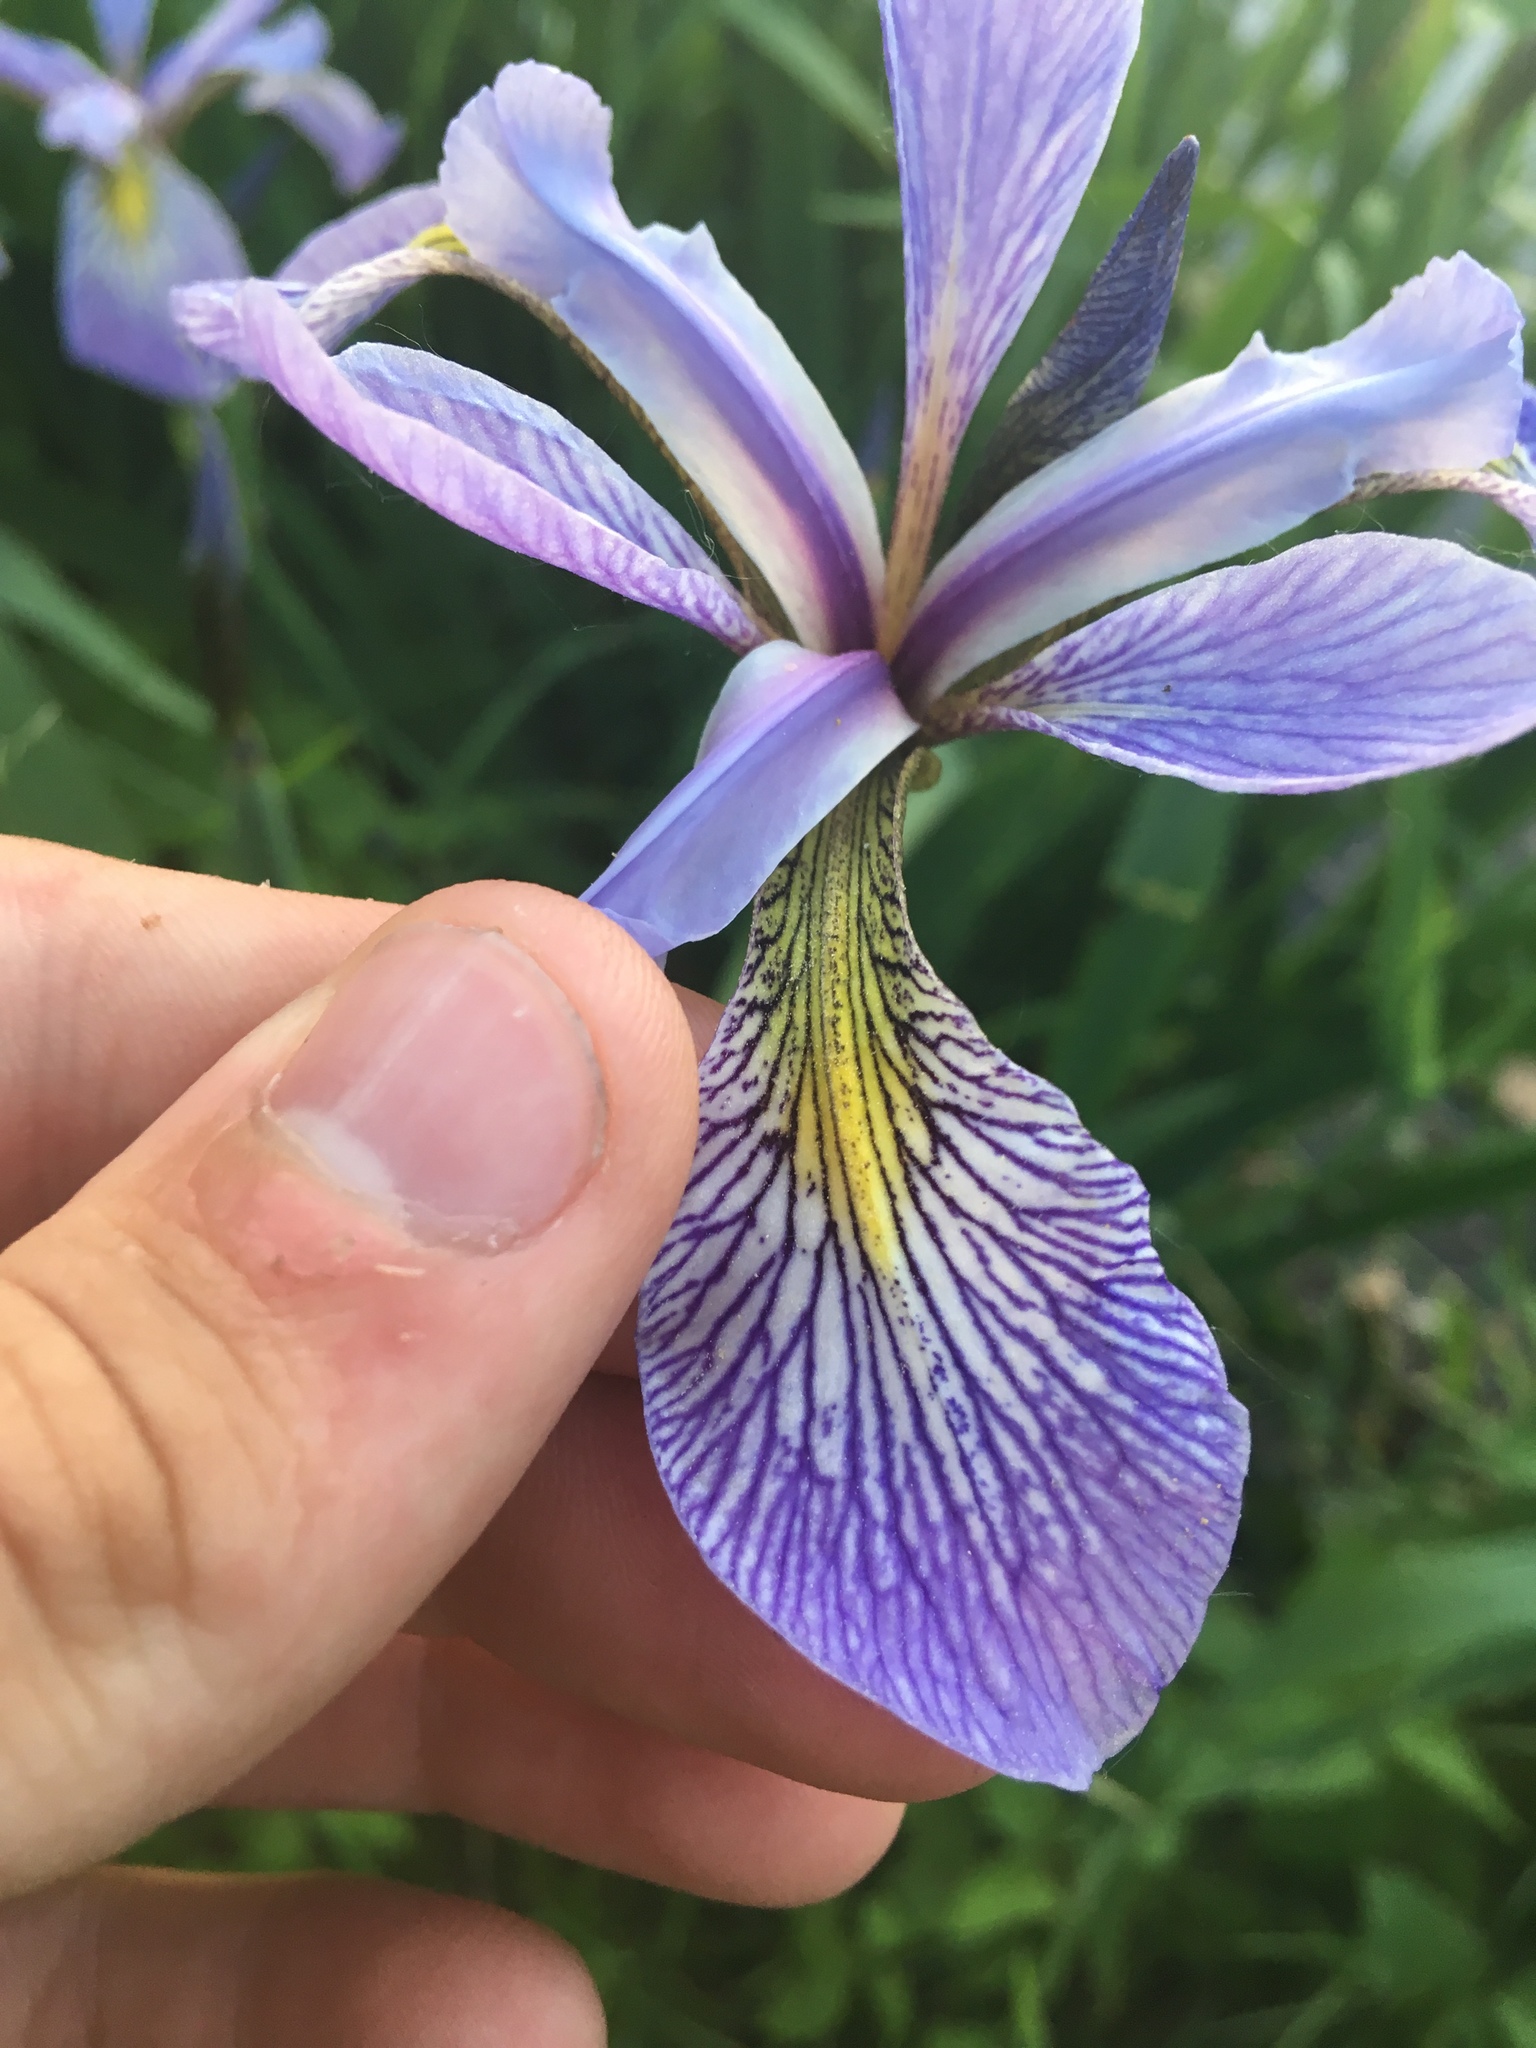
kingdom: Plantae
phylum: Tracheophyta
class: Liliopsida
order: Asparagales
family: Iridaceae
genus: Iris
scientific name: Iris versicolor
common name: Purple iris
